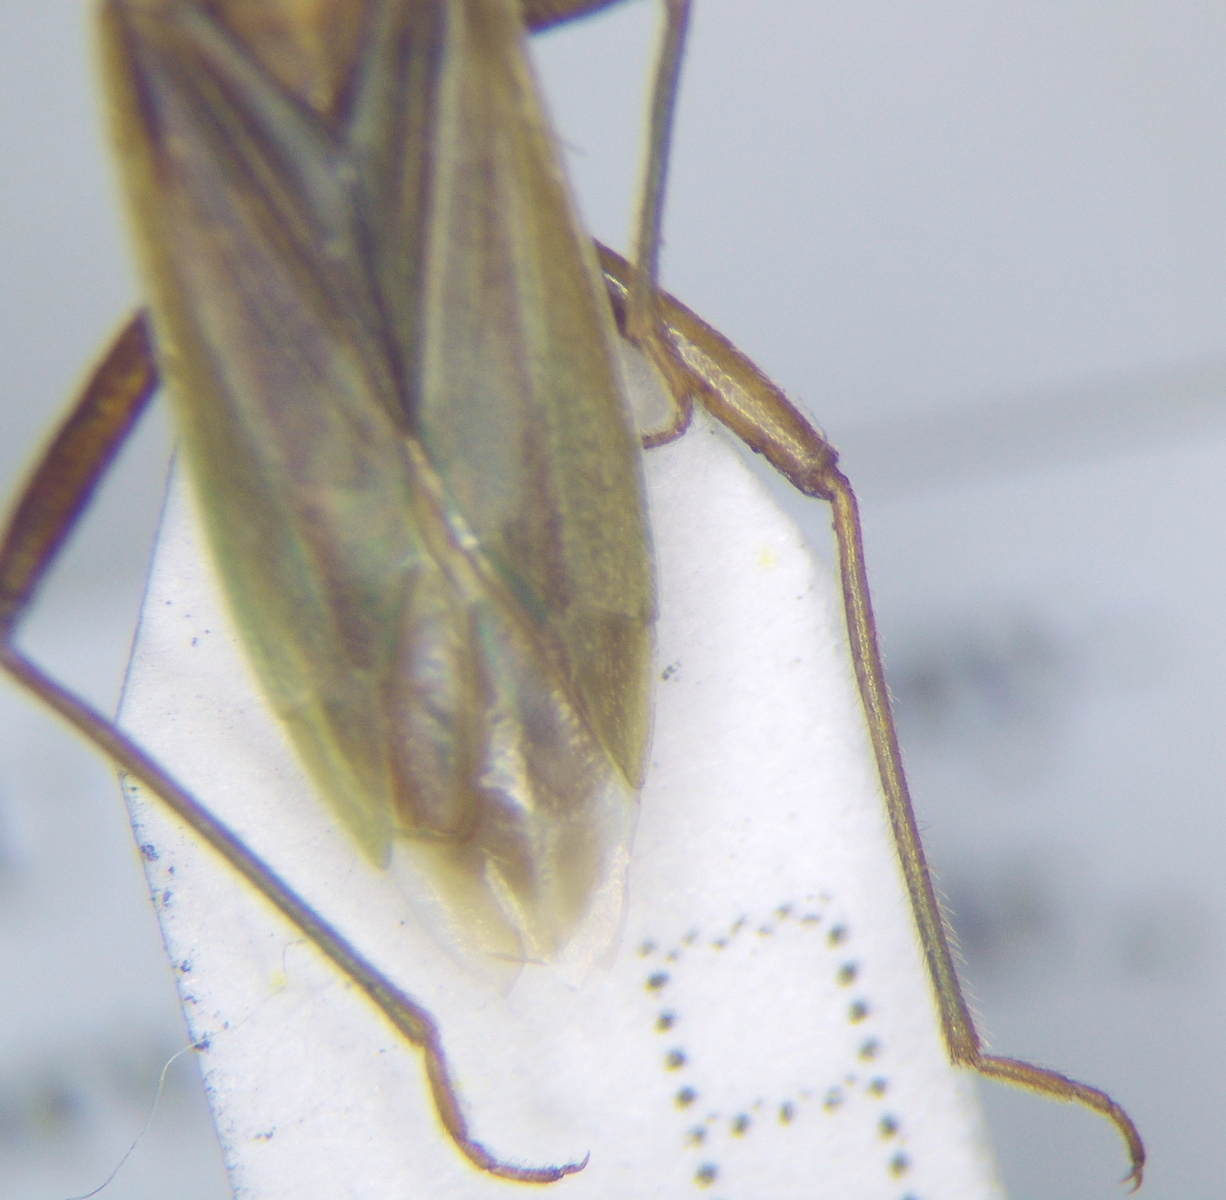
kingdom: Animalia
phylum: Arthropoda
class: Insecta
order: Hemiptera
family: Miridae
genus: Stenodema
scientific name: Stenodema holsata
